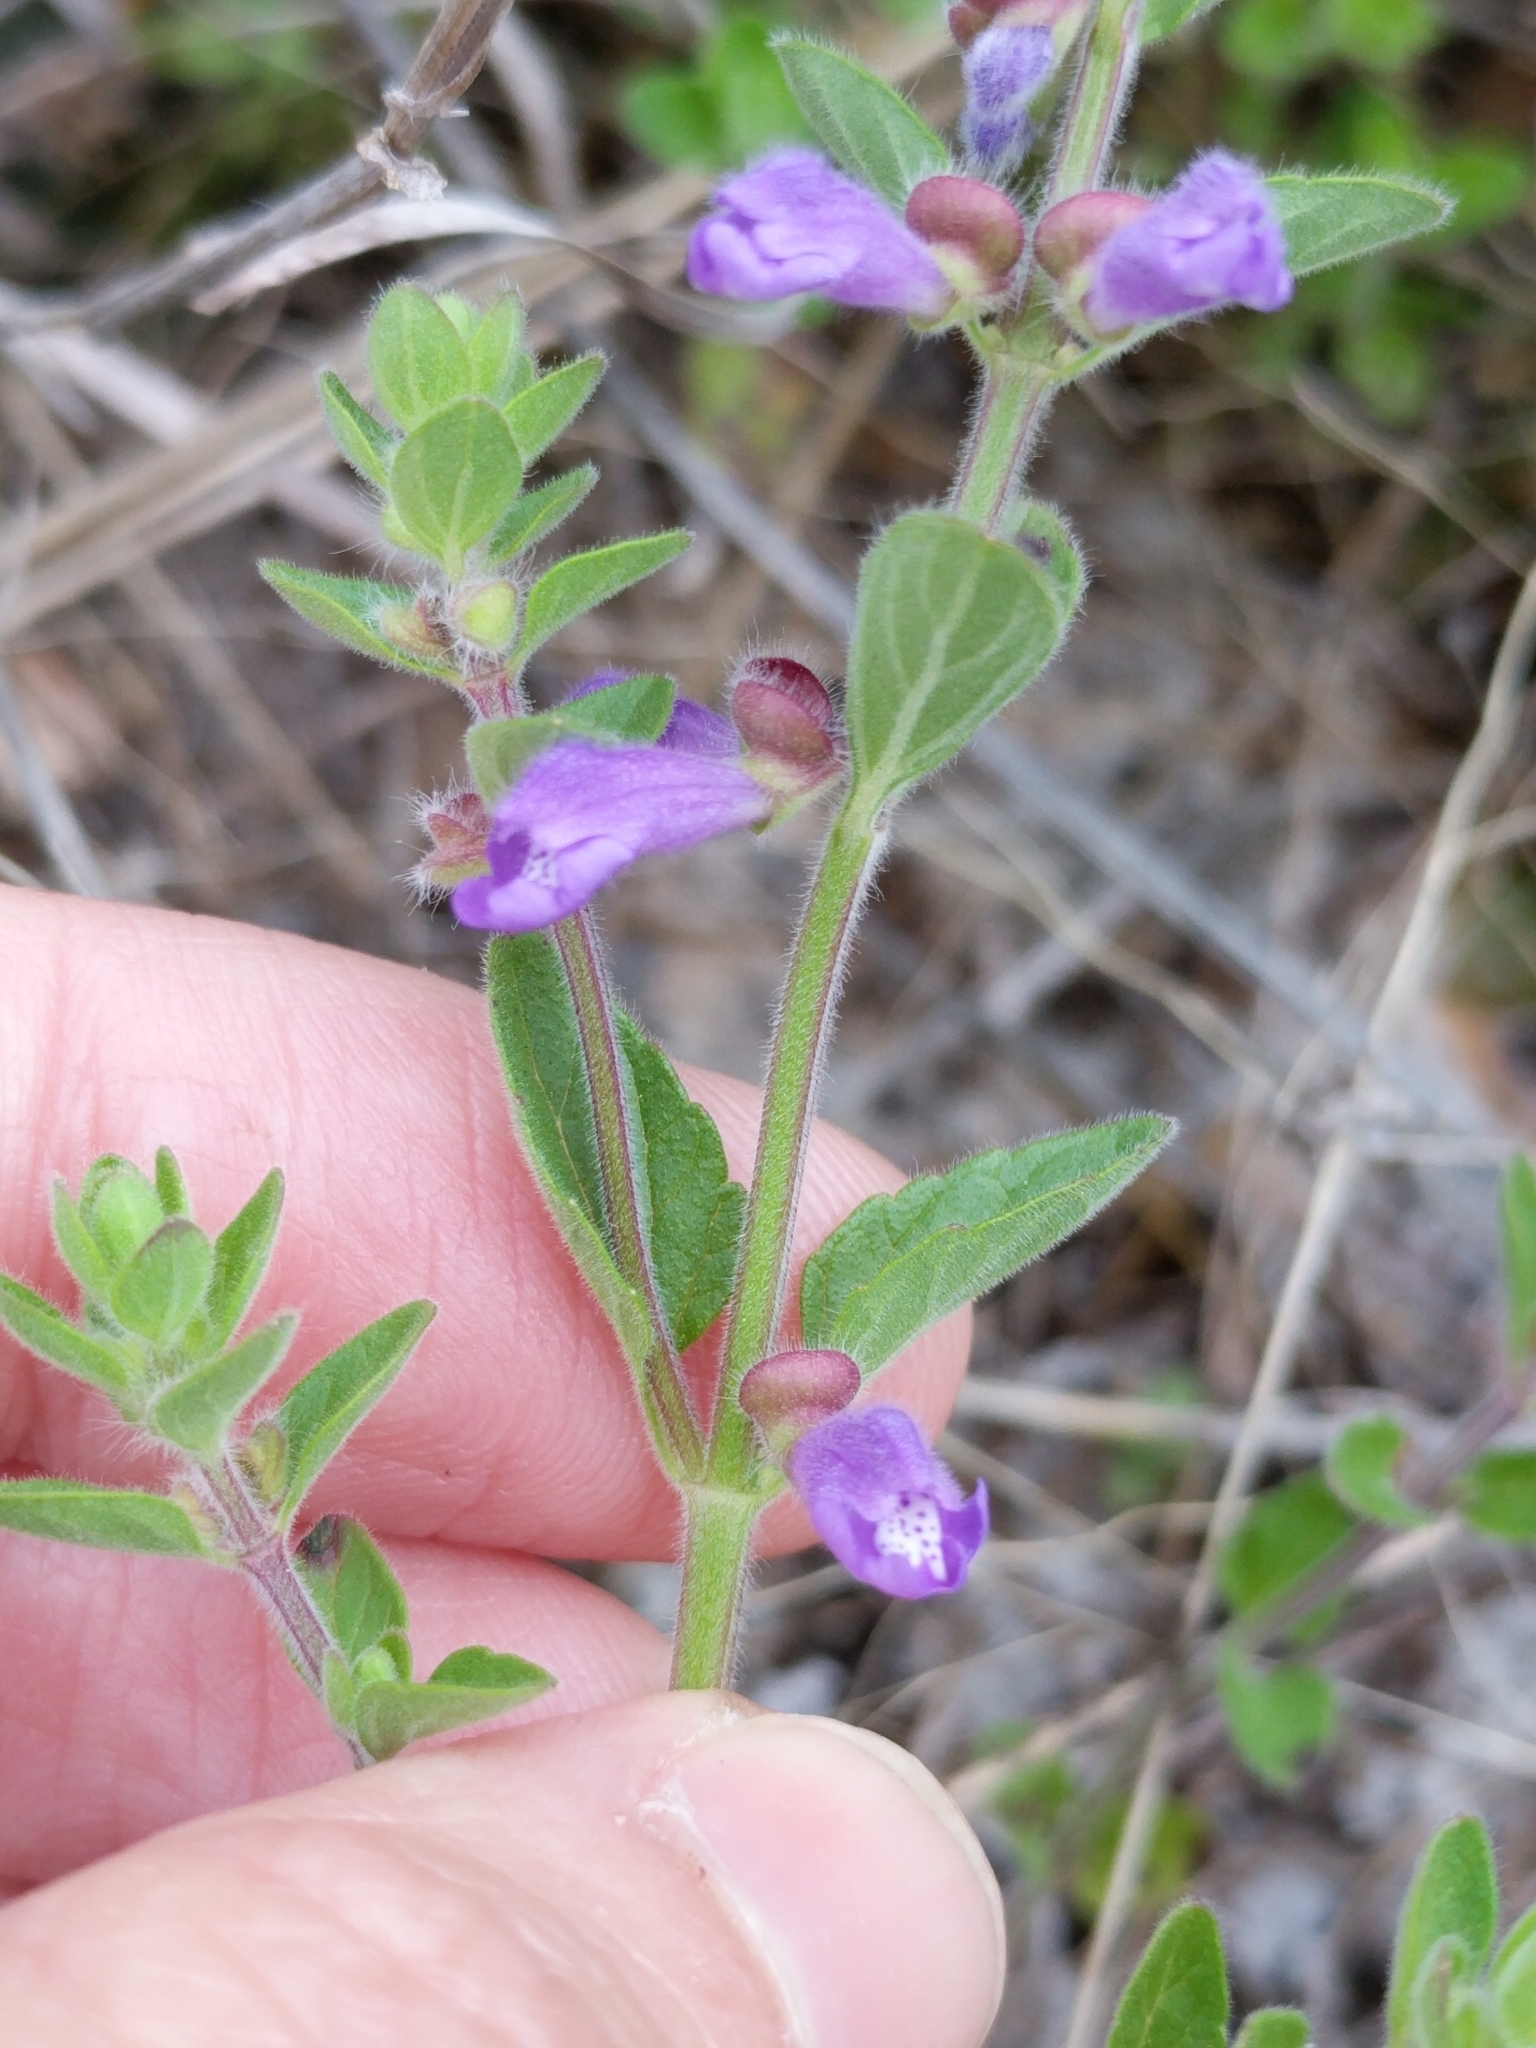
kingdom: Plantae
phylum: Tracheophyta
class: Magnoliopsida
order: Lamiales
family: Lamiaceae
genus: Scutellaria
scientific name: Scutellaria drummondii
